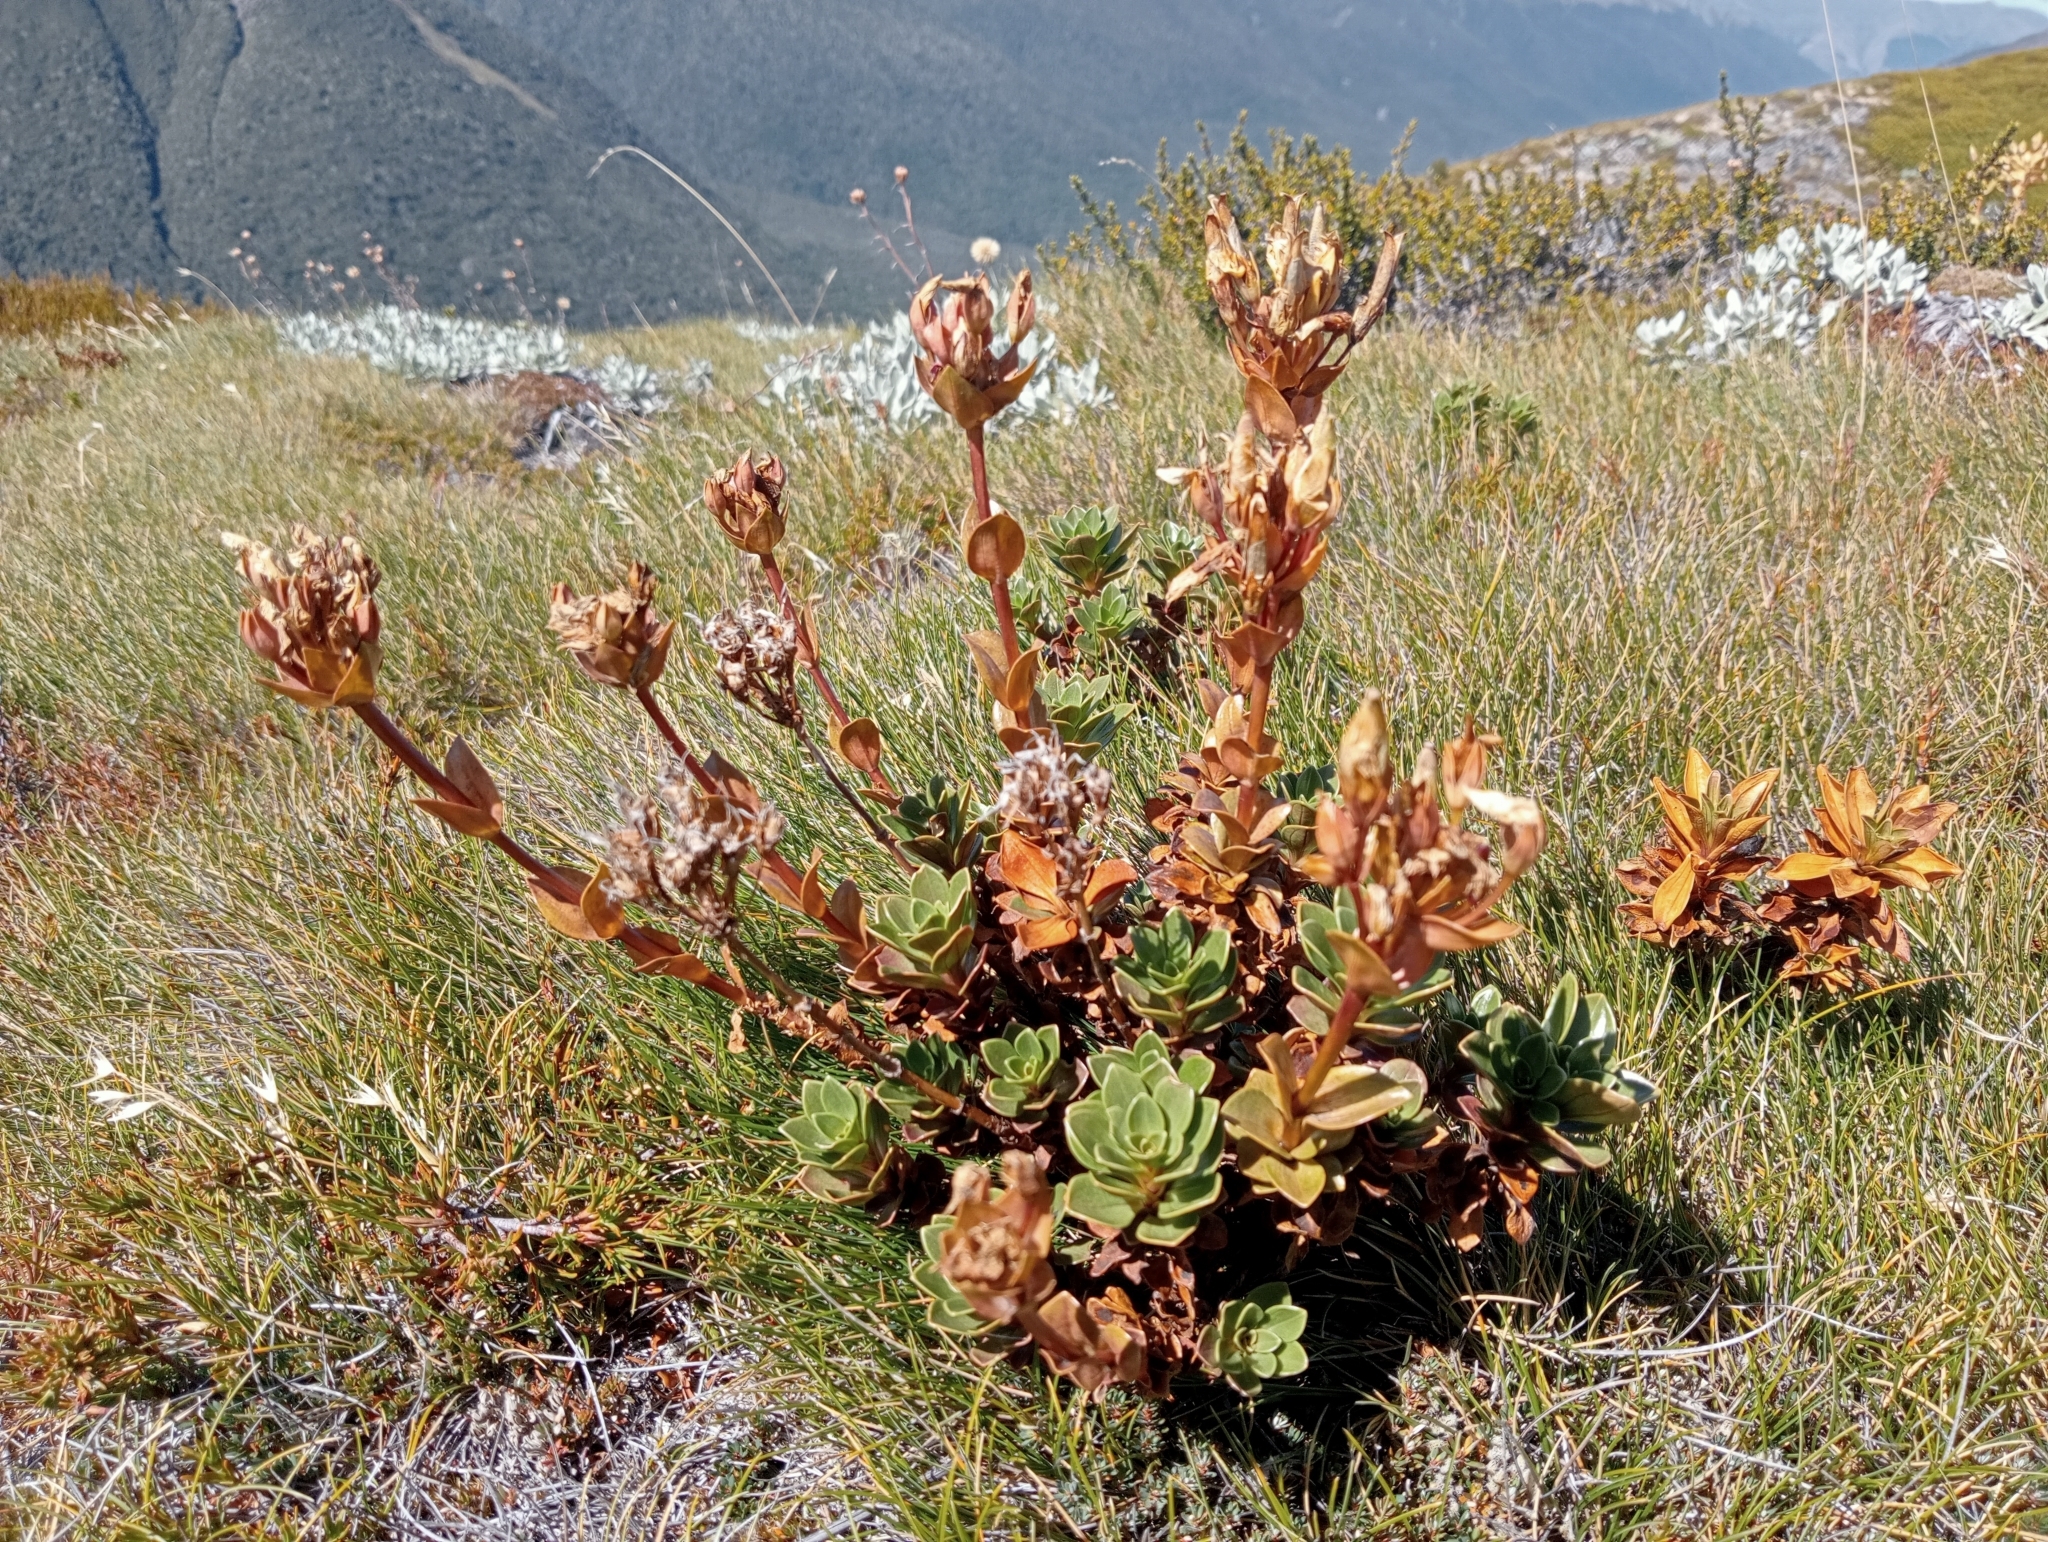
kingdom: Plantae
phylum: Tracheophyta
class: Magnoliopsida
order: Gentianales
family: Gentianaceae
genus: Gentianella
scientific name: Gentianella impressinervia
